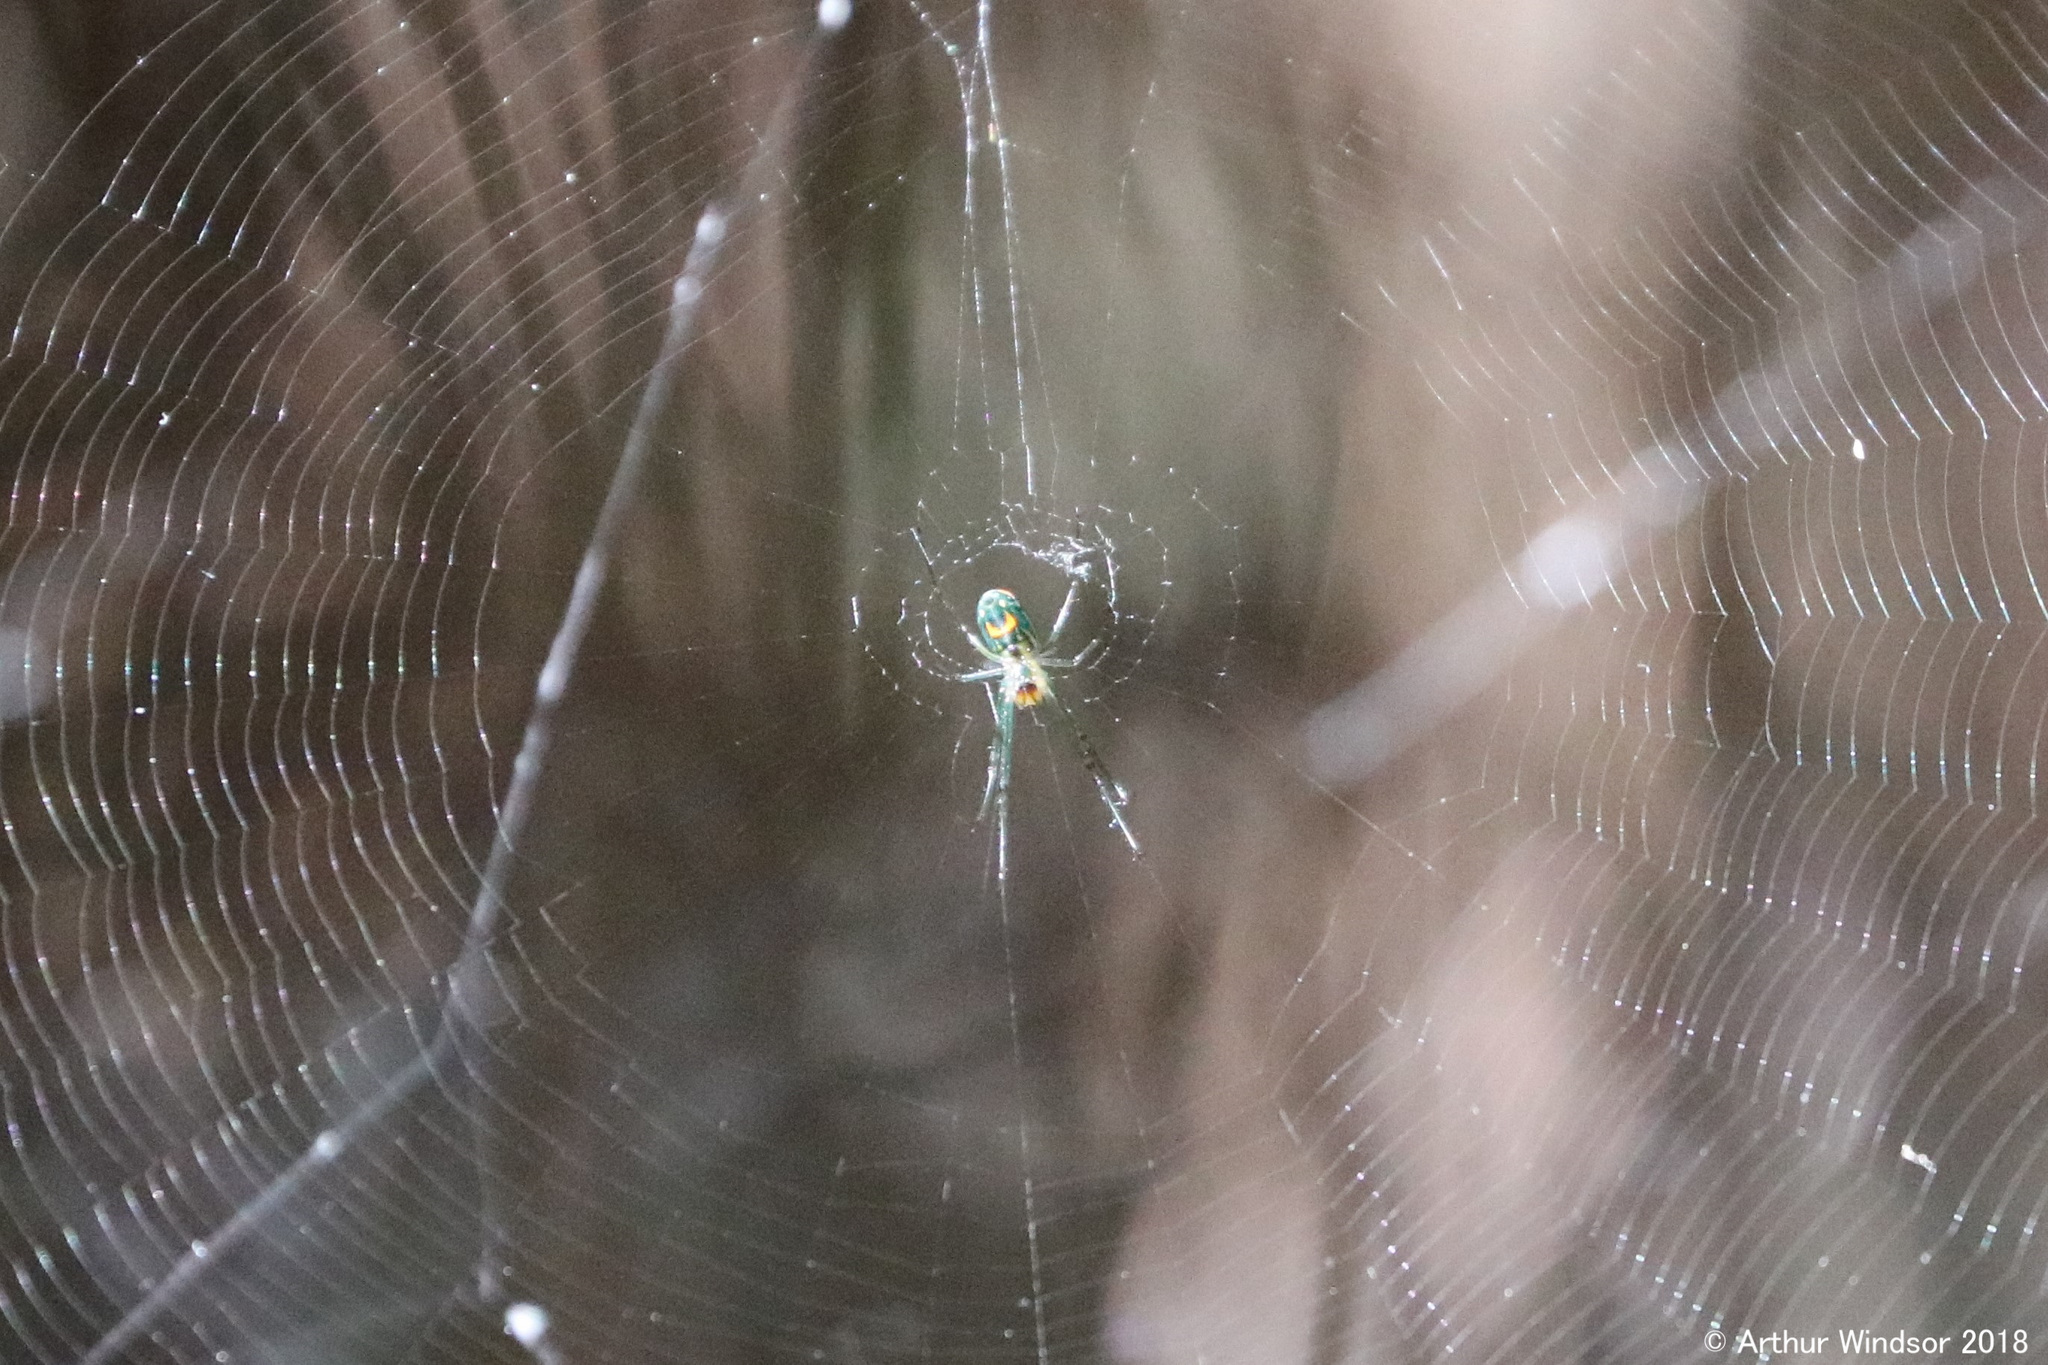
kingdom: Animalia
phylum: Arthropoda
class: Arachnida
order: Araneae
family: Tetragnathidae
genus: Leucauge
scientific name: Leucauge argyrobapta
